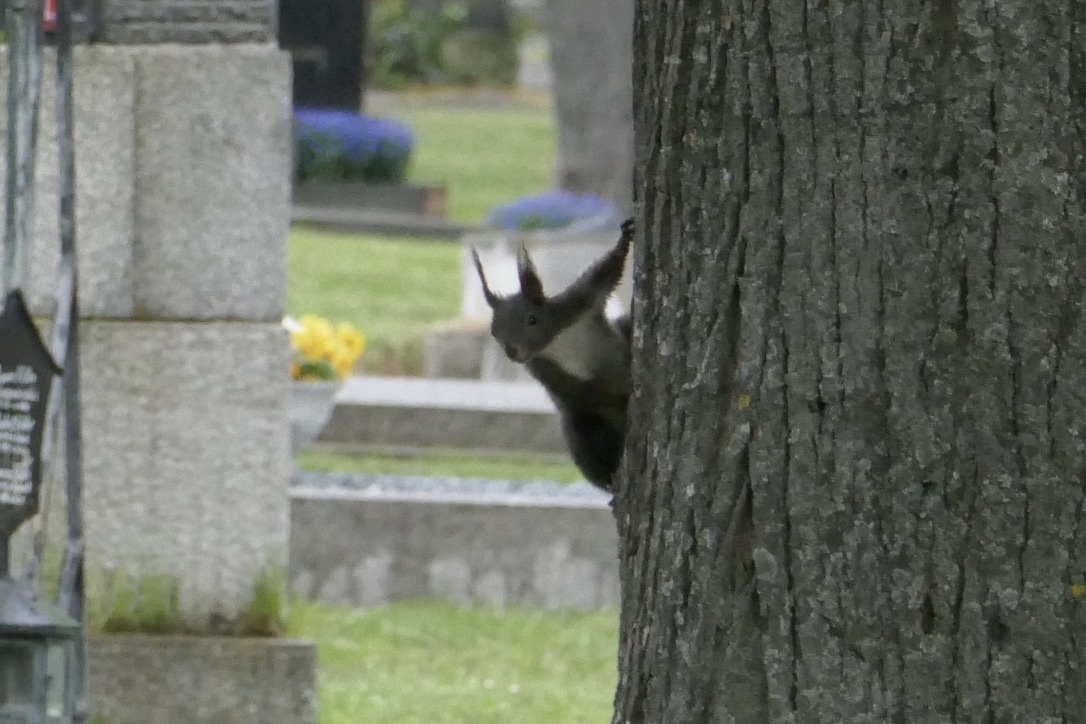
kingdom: Animalia
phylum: Chordata
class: Mammalia
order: Rodentia
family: Sciuridae
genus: Sciurus
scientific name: Sciurus vulgaris
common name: Eurasian red squirrel
